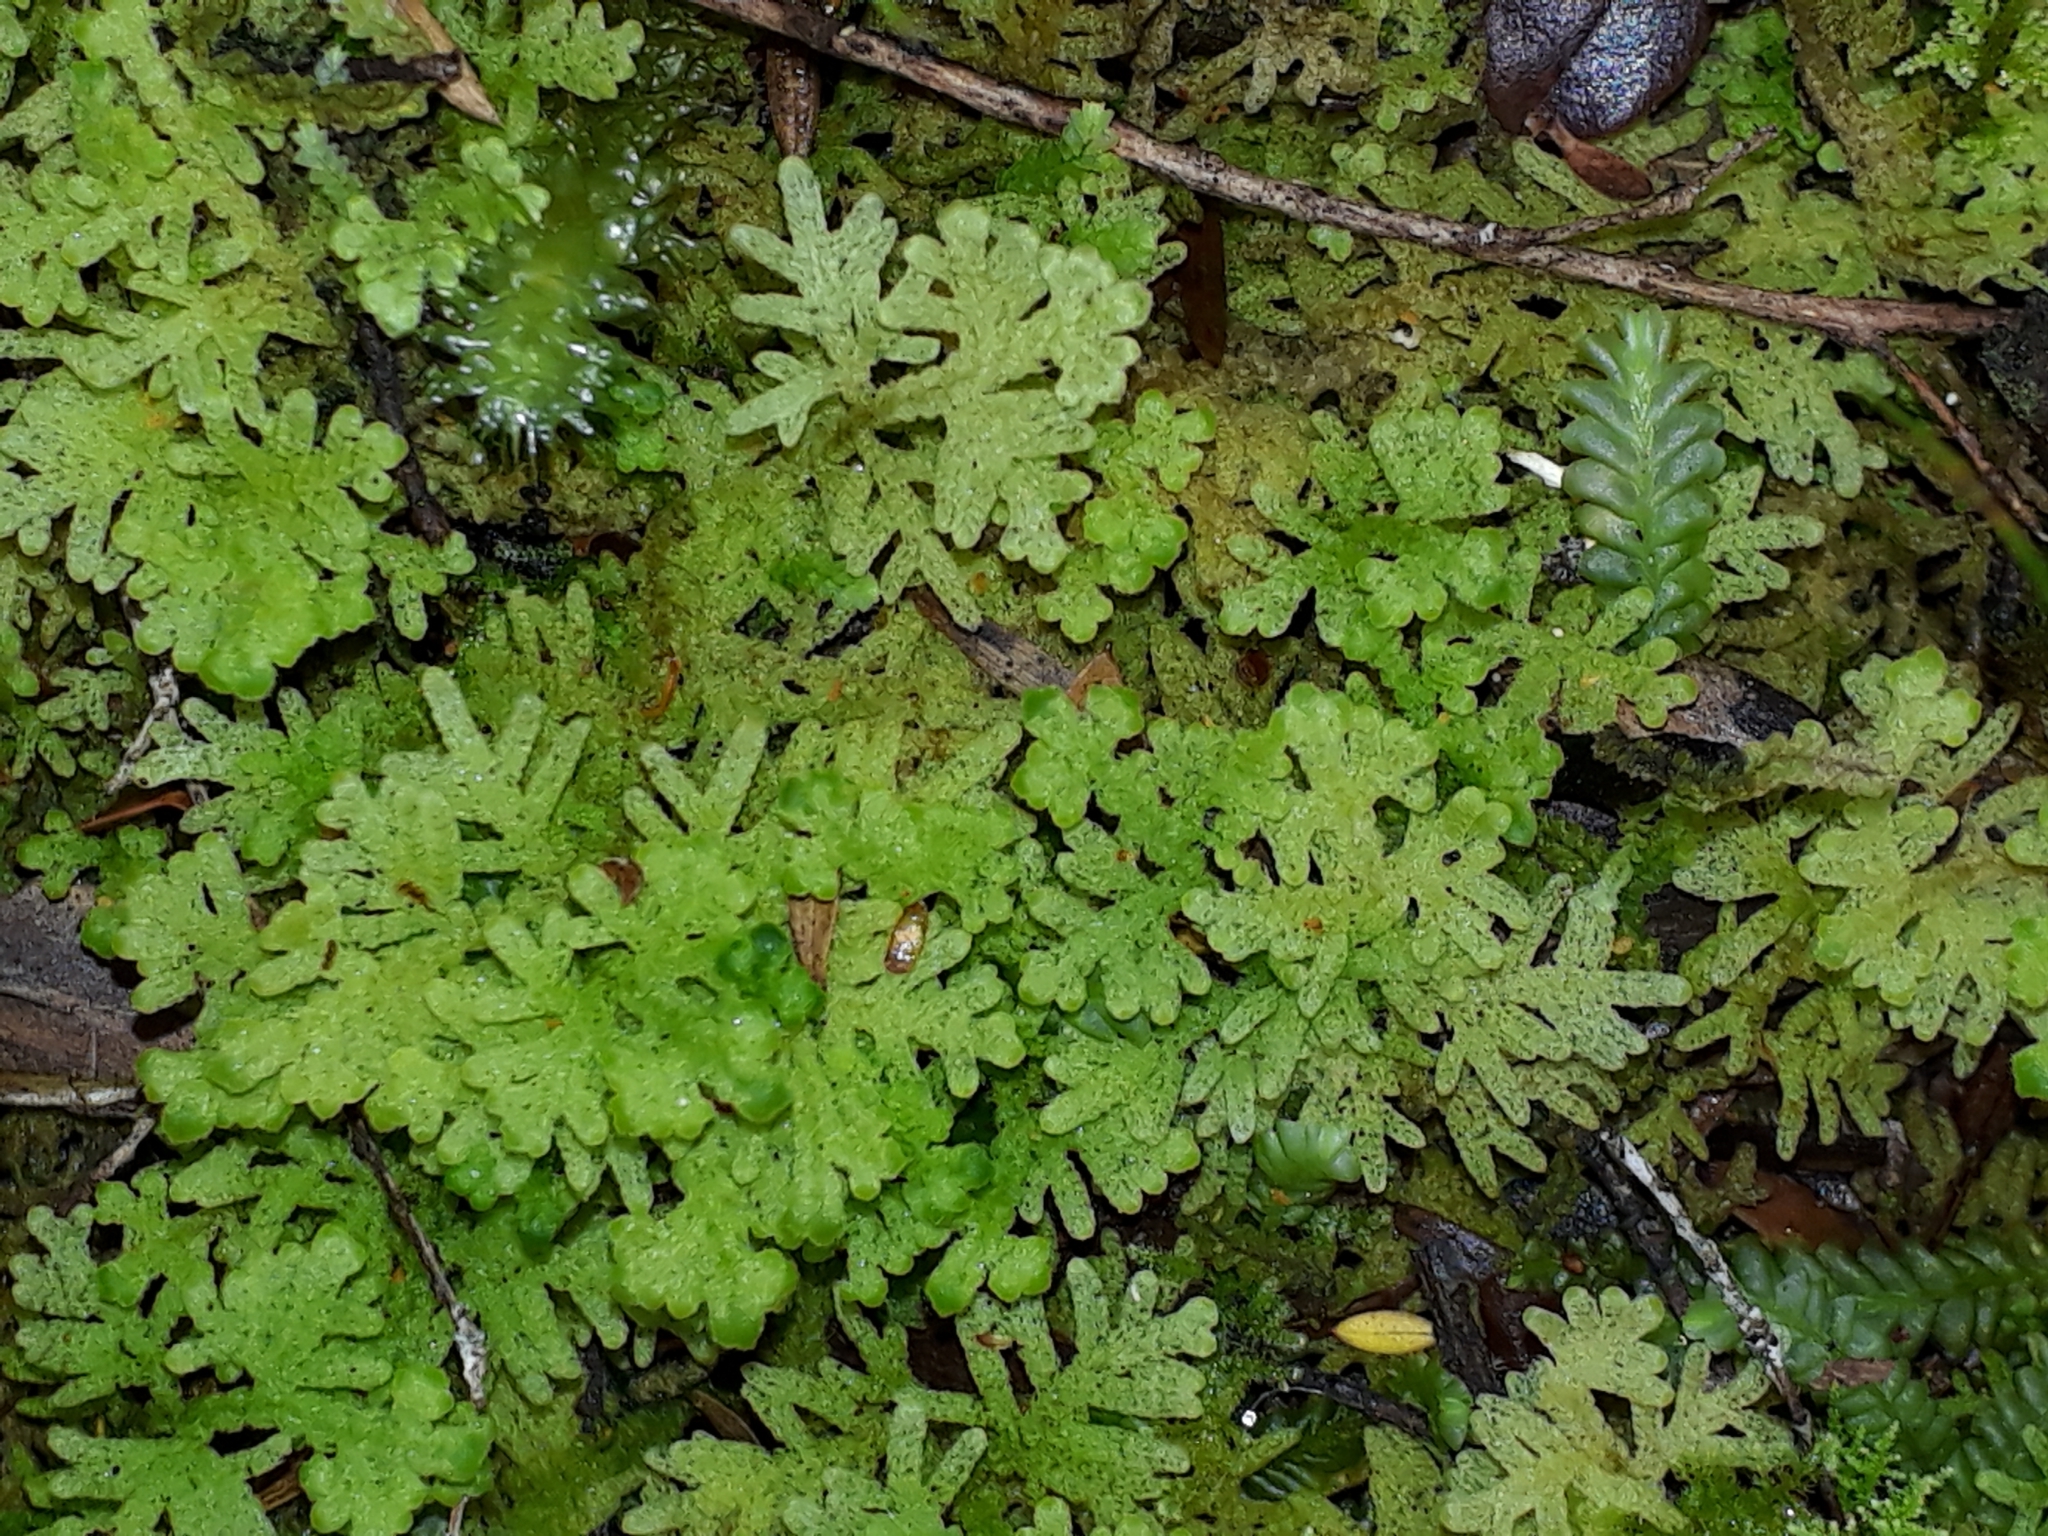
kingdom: Plantae
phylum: Marchantiophyta
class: Jungermanniopsida
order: Jungermanniales
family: Trichocoleaceae
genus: Trichocolea
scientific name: Trichocolea mollissima
